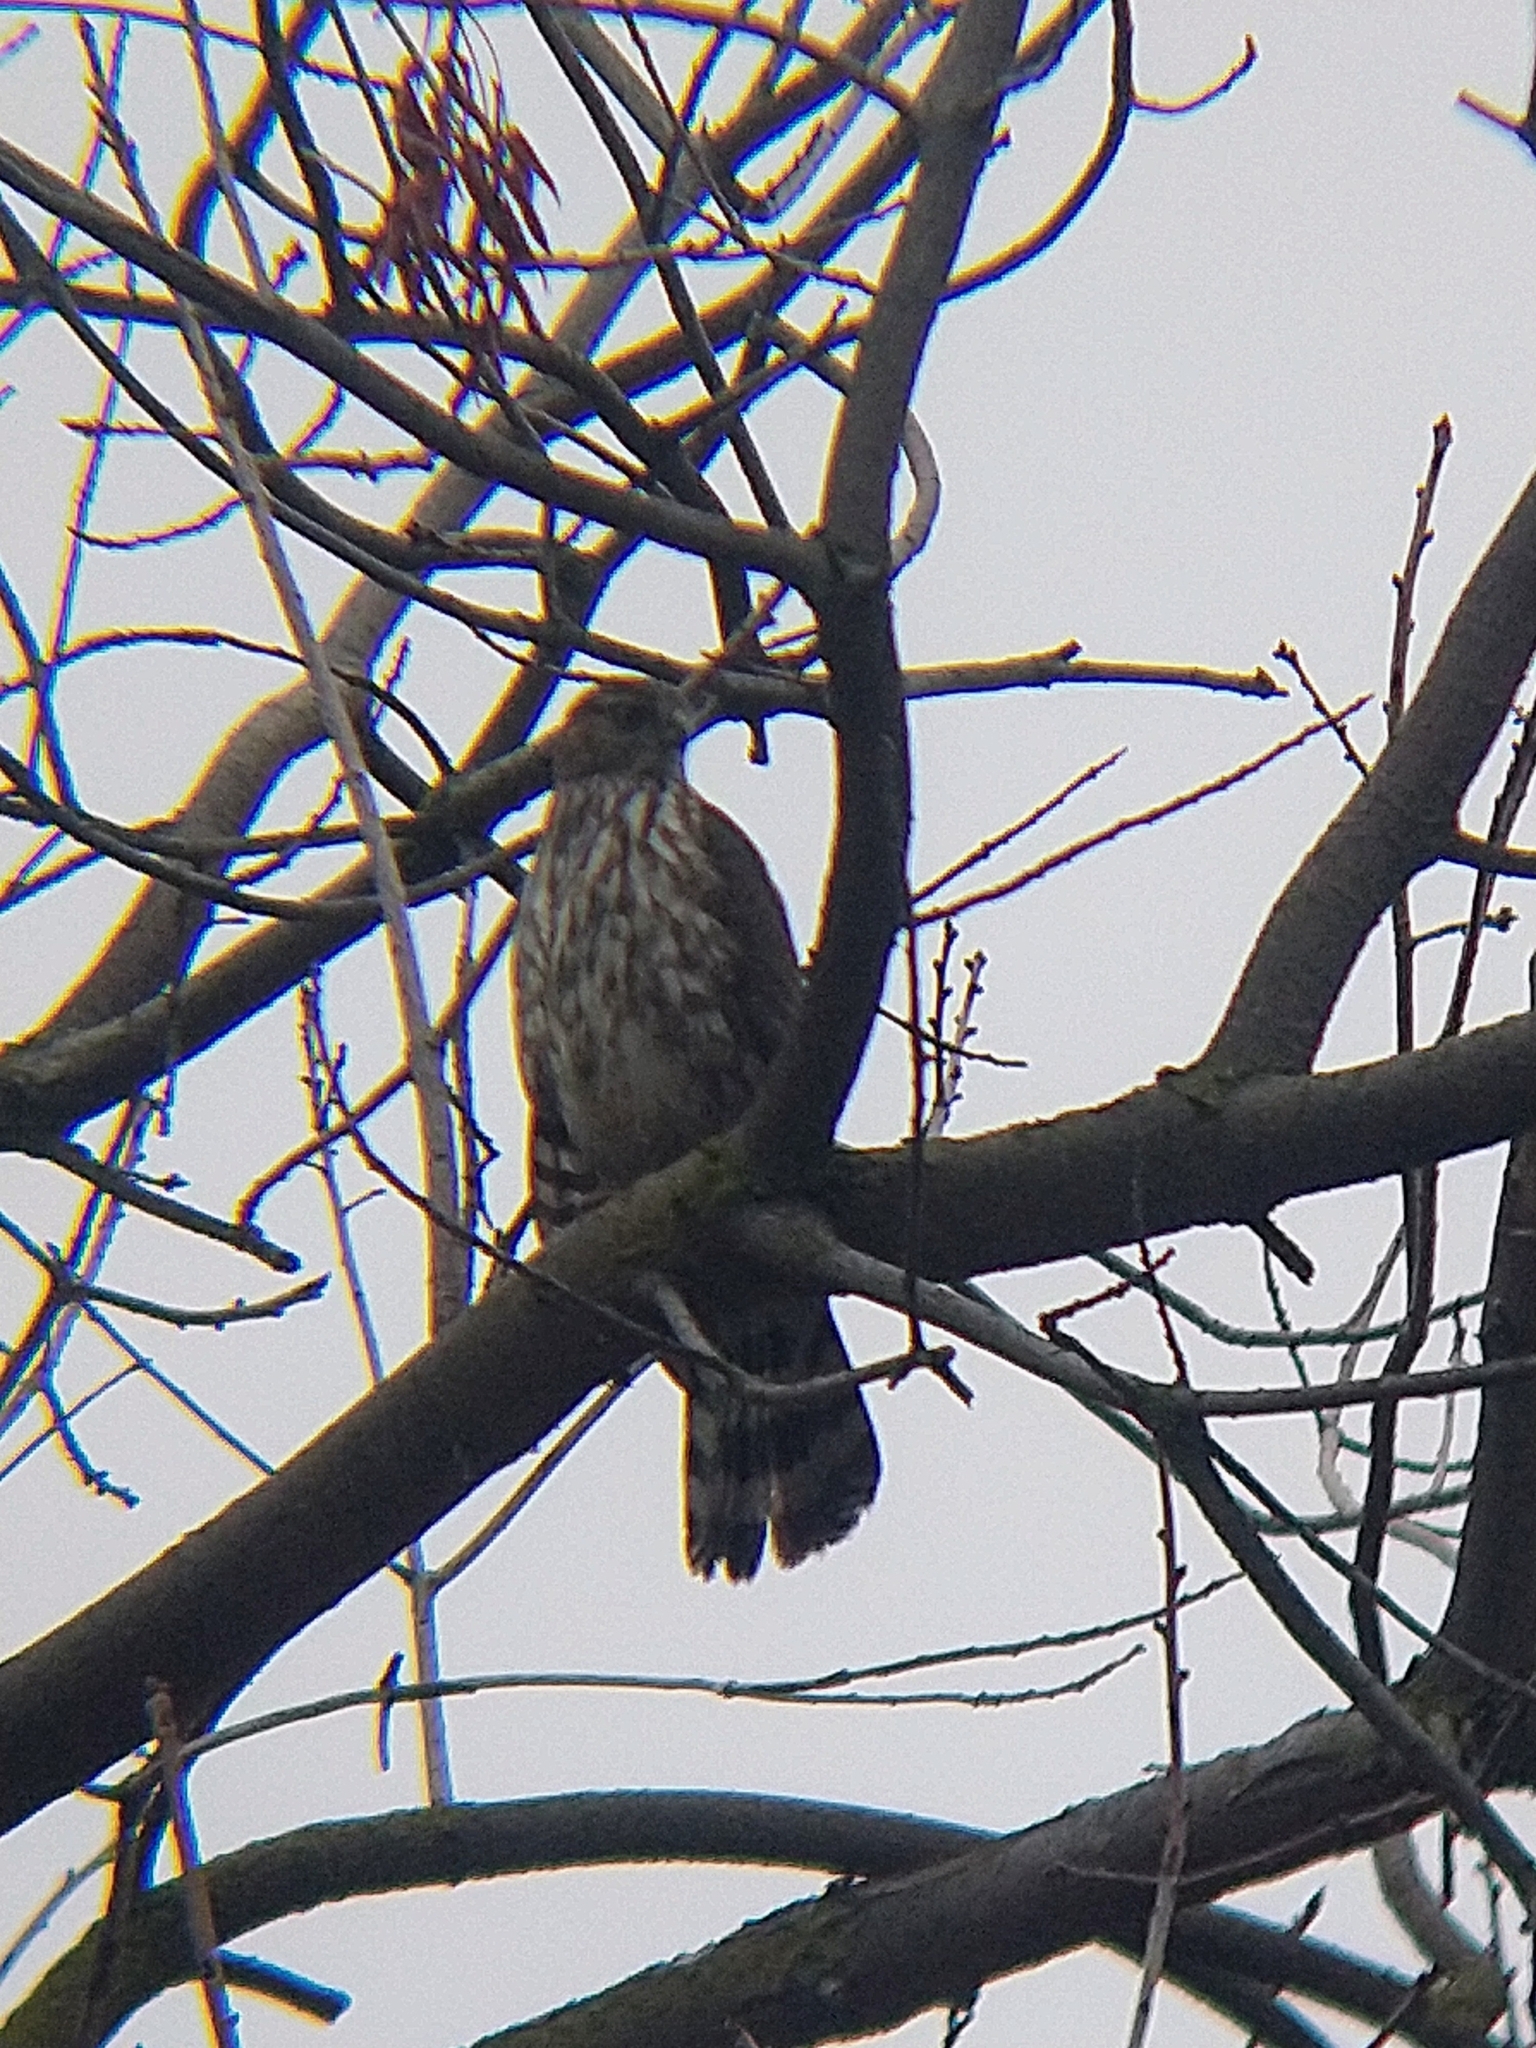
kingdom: Animalia
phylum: Chordata
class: Aves
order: Accipitriformes
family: Accipitridae
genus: Accipiter
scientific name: Accipiter cooperii
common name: Cooper's hawk
